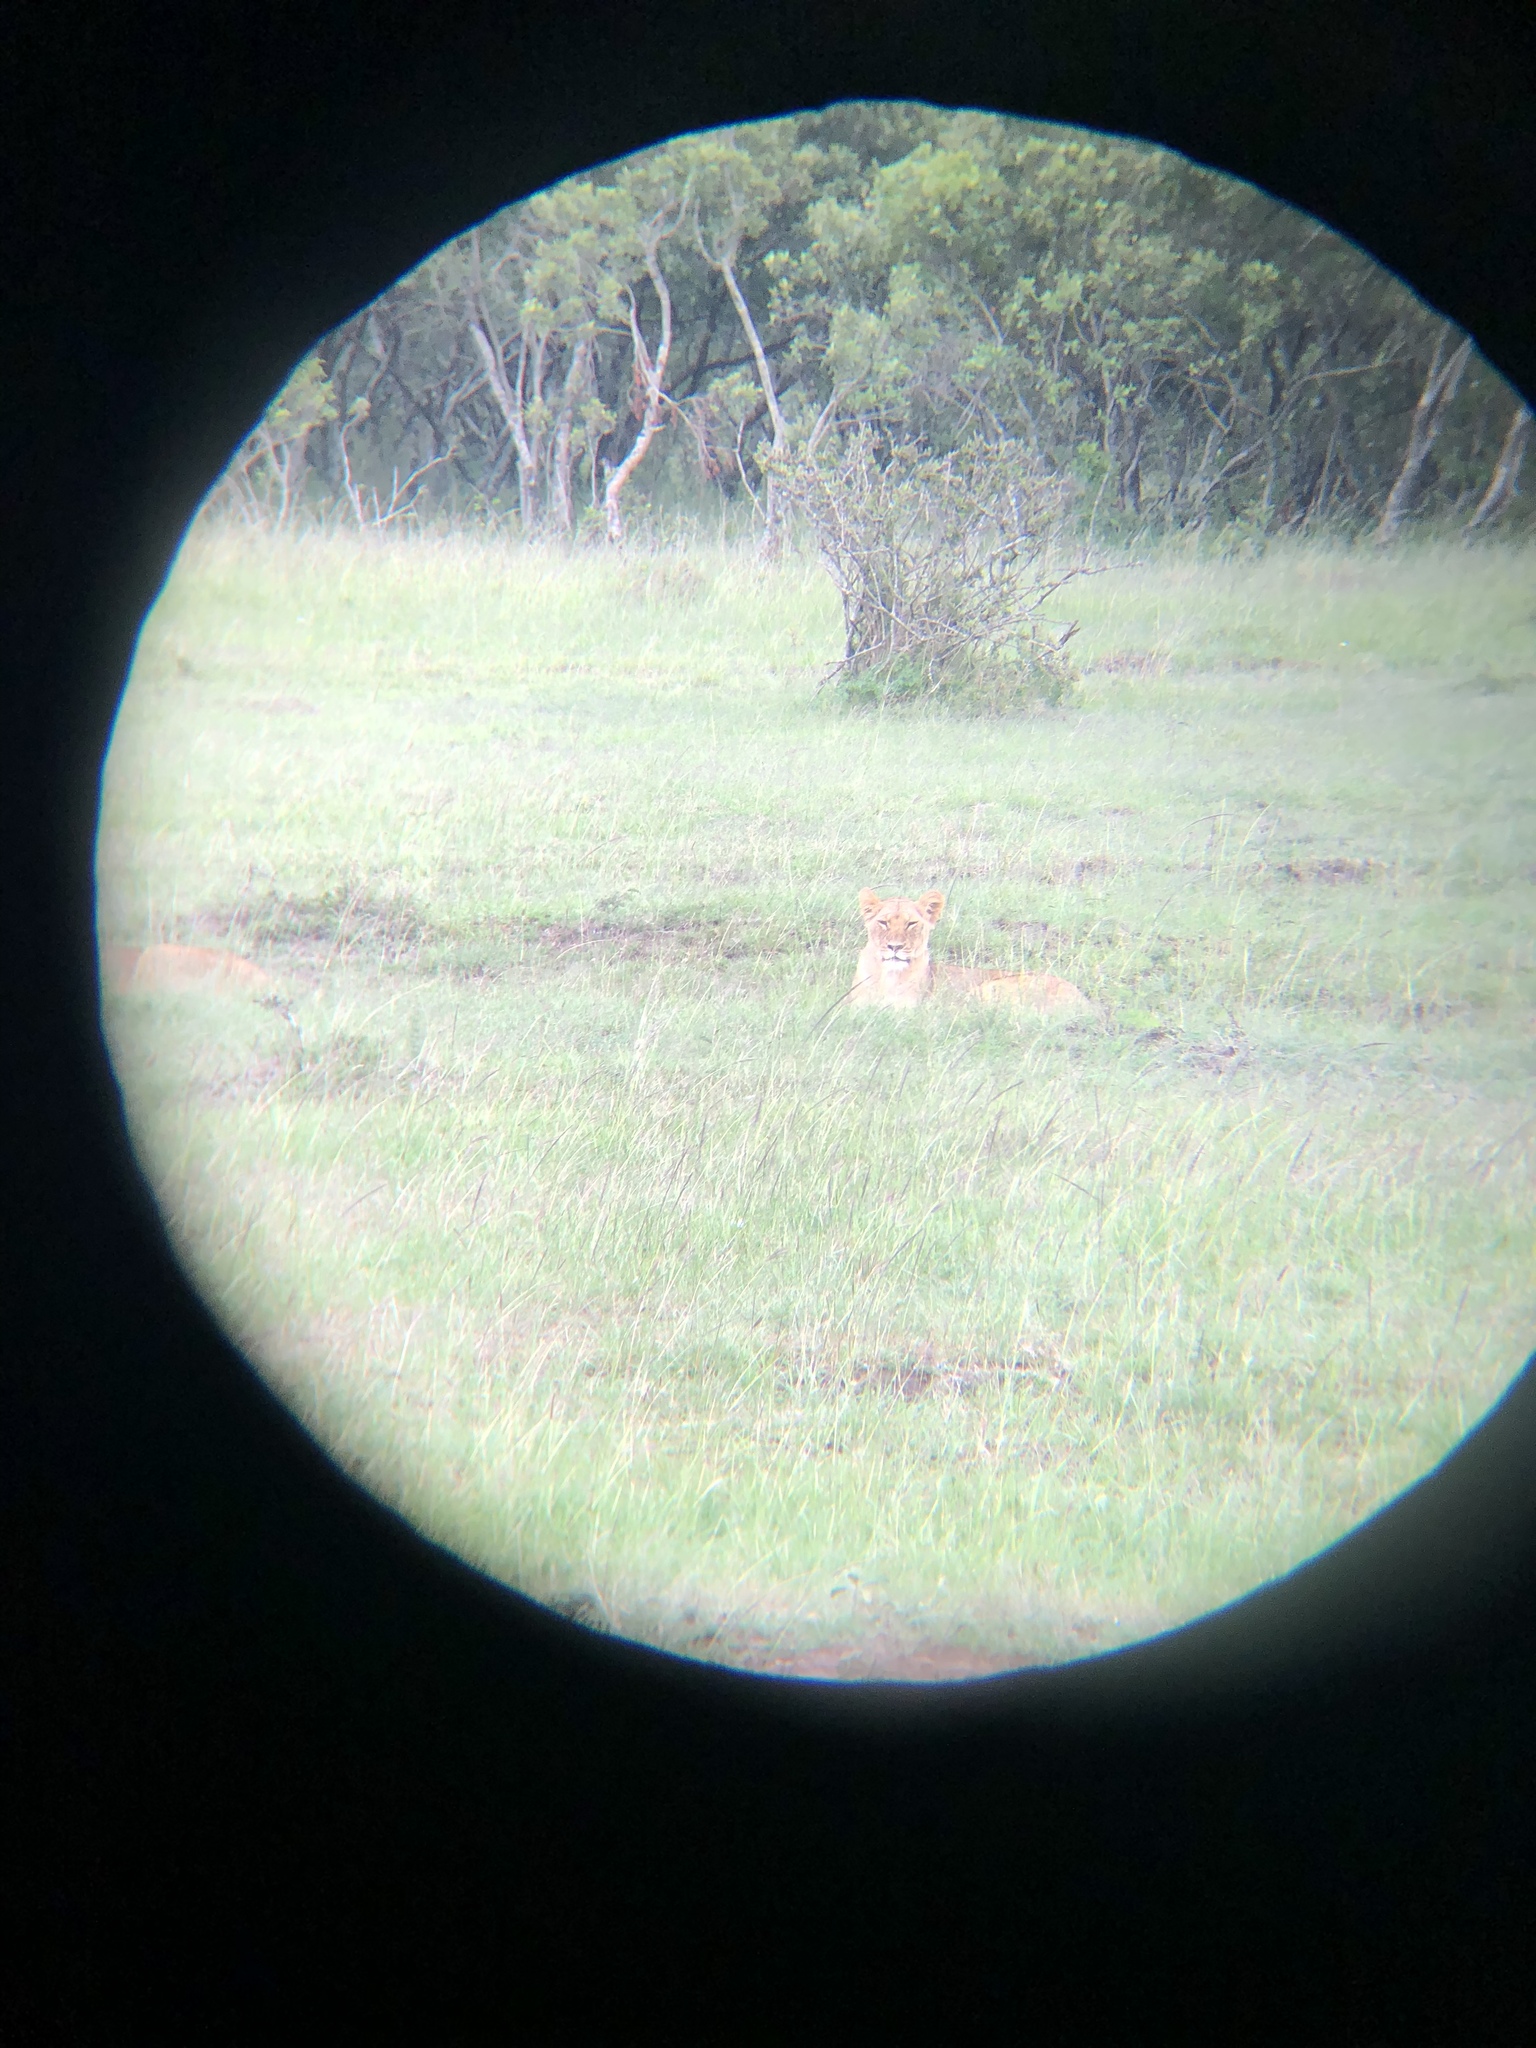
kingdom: Animalia
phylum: Chordata
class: Mammalia
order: Carnivora
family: Felidae
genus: Panthera
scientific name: Panthera leo
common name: Lion
